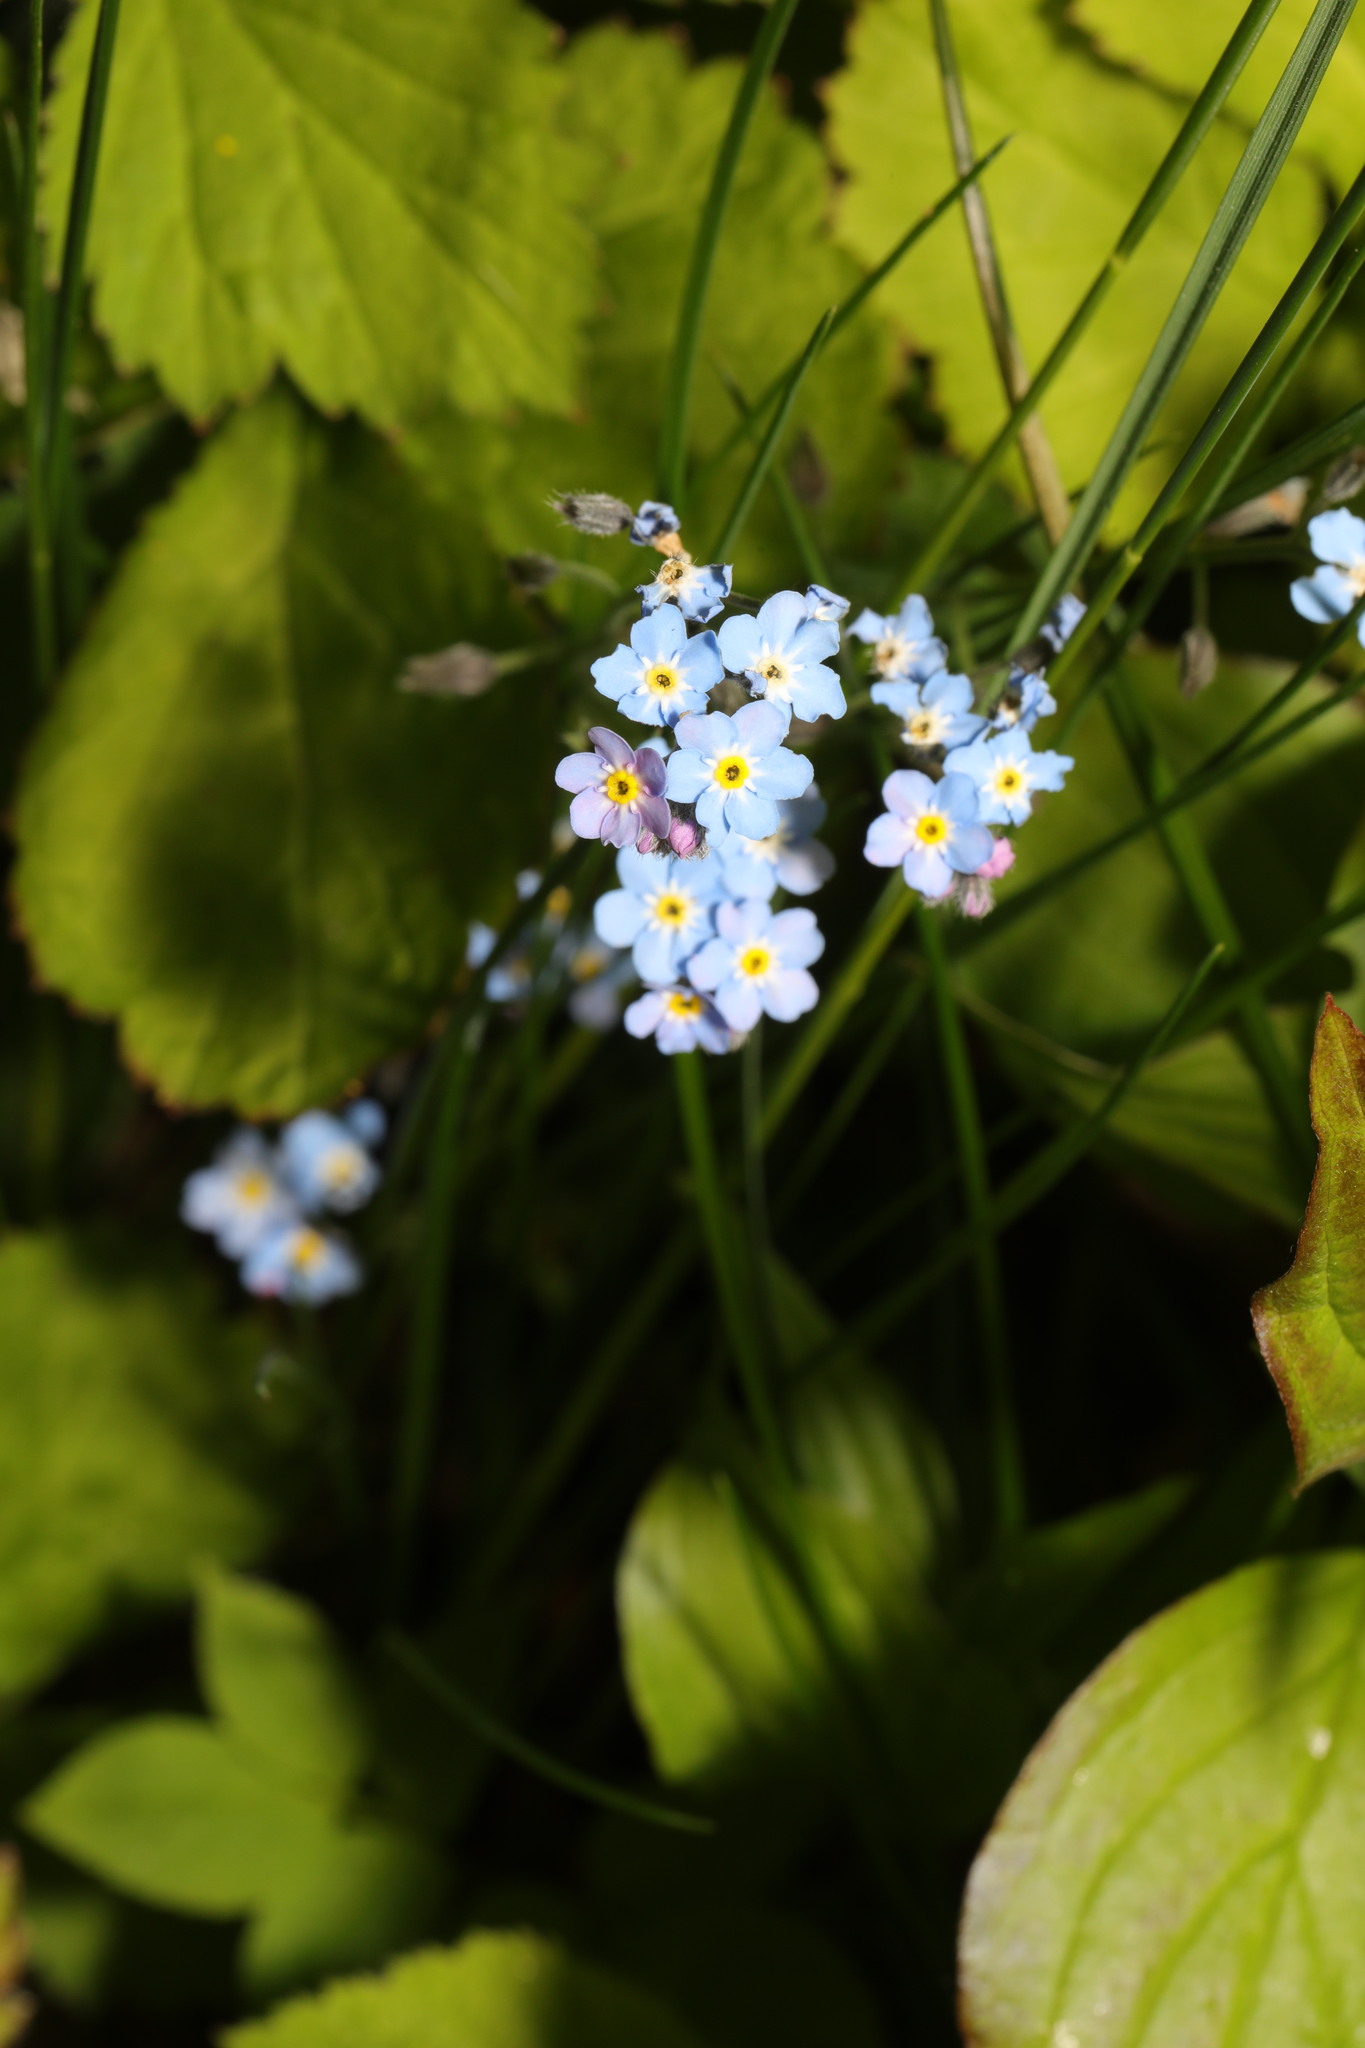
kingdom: Plantae
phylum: Tracheophyta
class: Magnoliopsida
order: Boraginales
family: Boraginaceae
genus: Myosotis
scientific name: Myosotis sylvatica
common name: Wood forget-me-not
